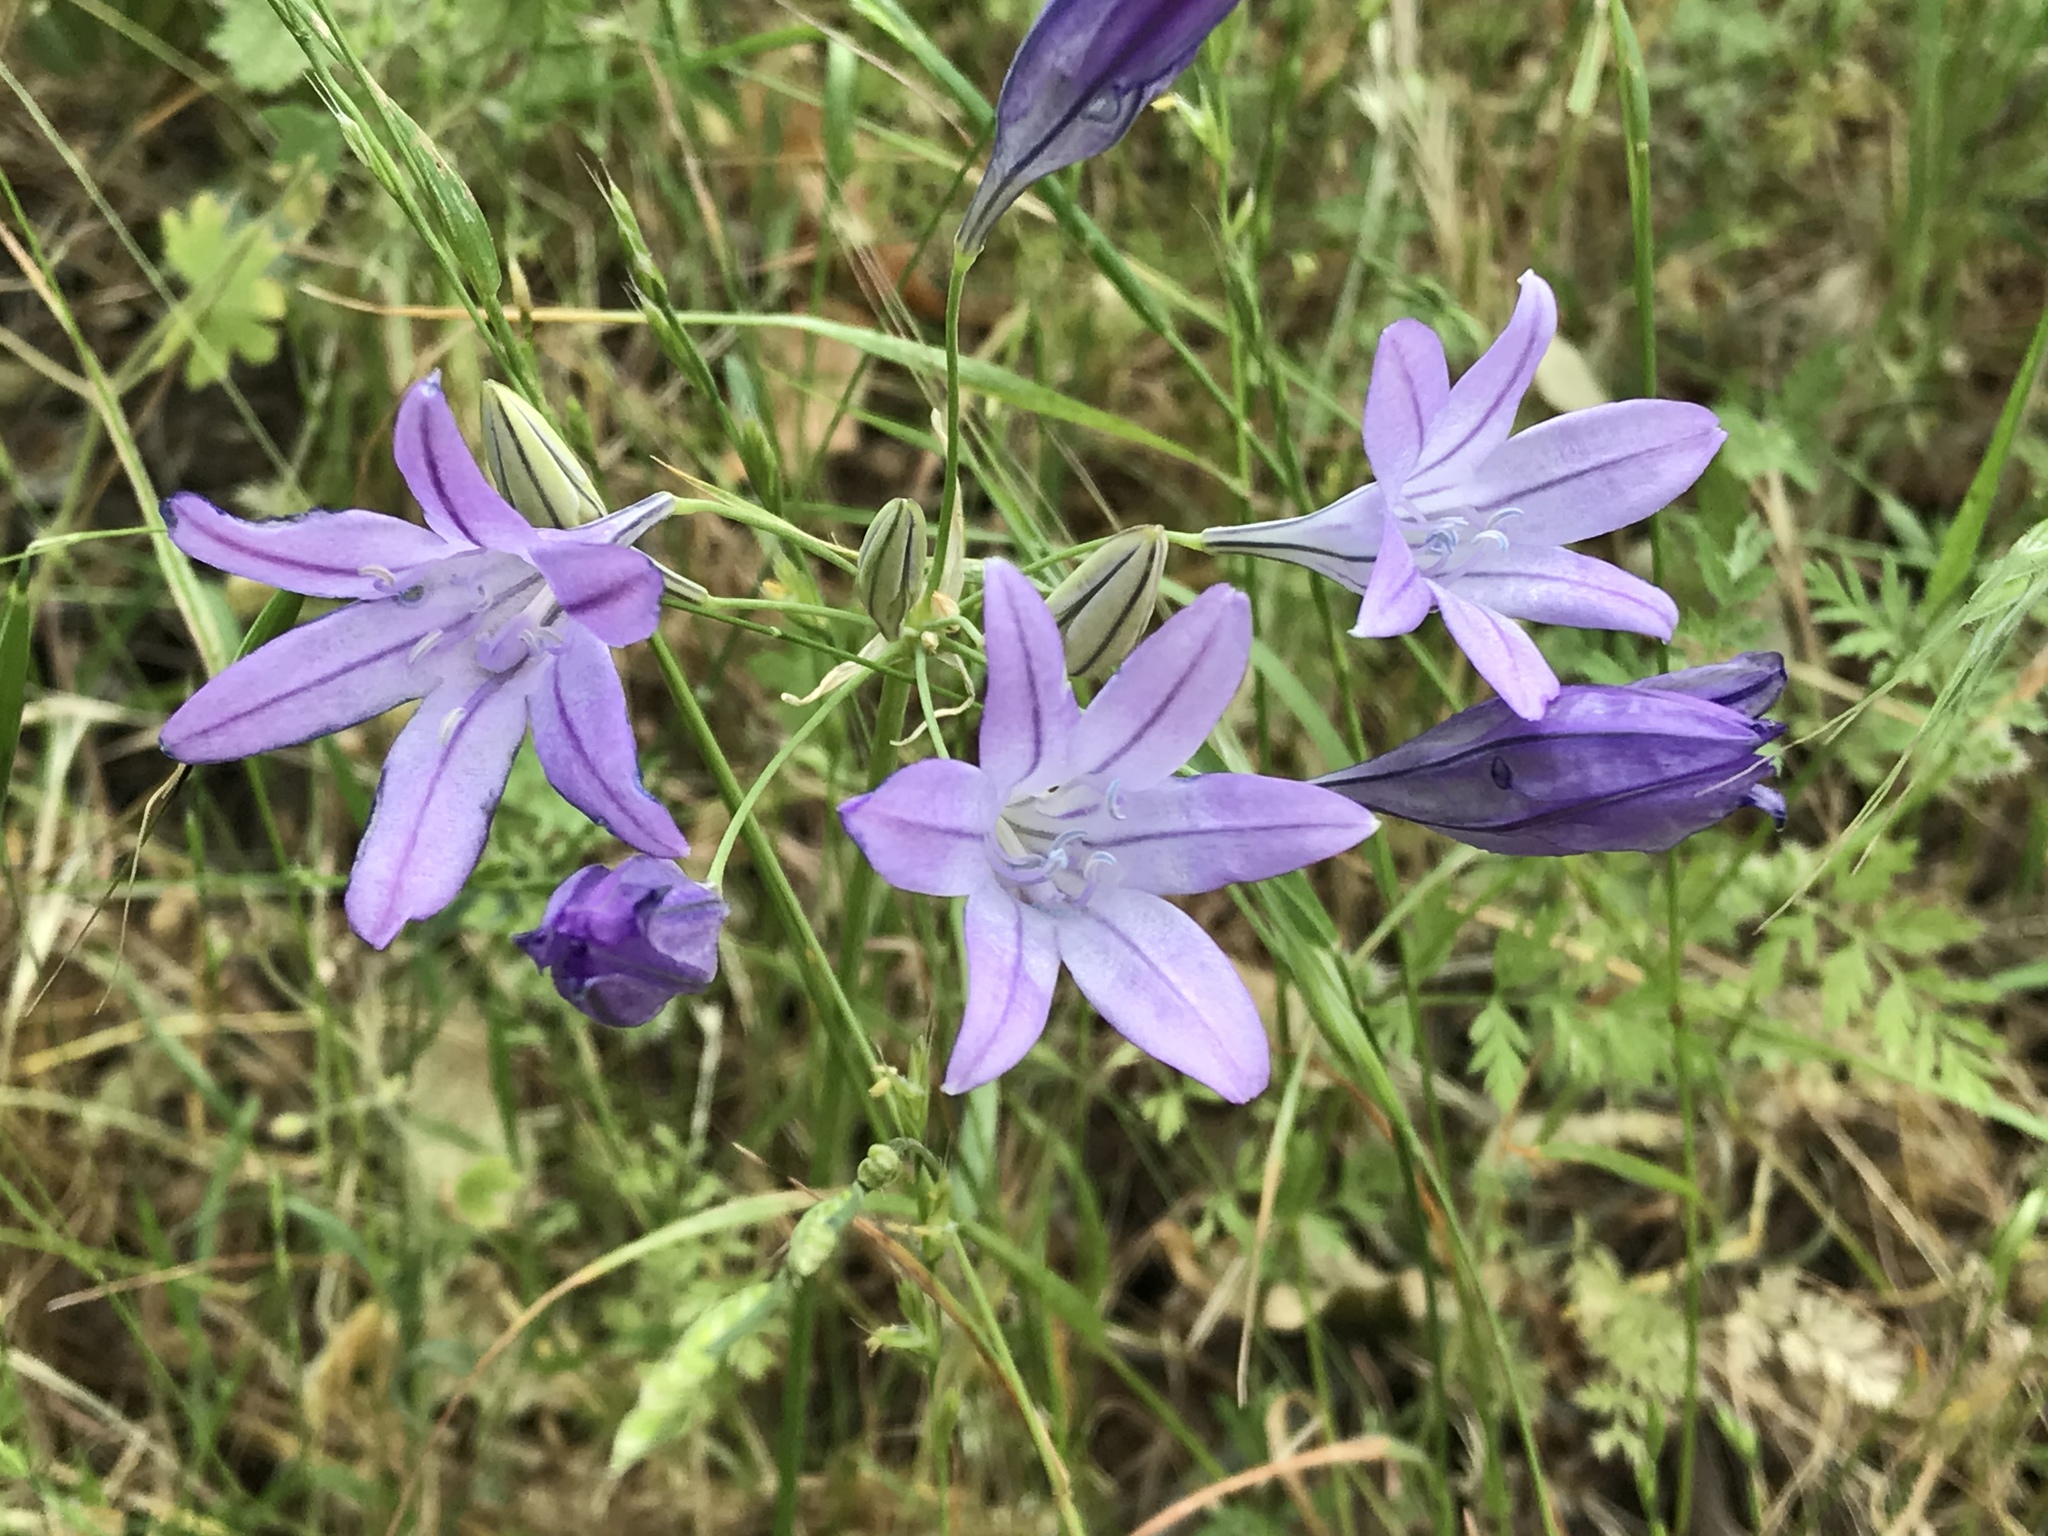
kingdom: Plantae
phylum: Tracheophyta
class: Liliopsida
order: Asparagales
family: Asparagaceae
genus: Triteleia
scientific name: Triteleia laxa
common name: Triplet-lily
